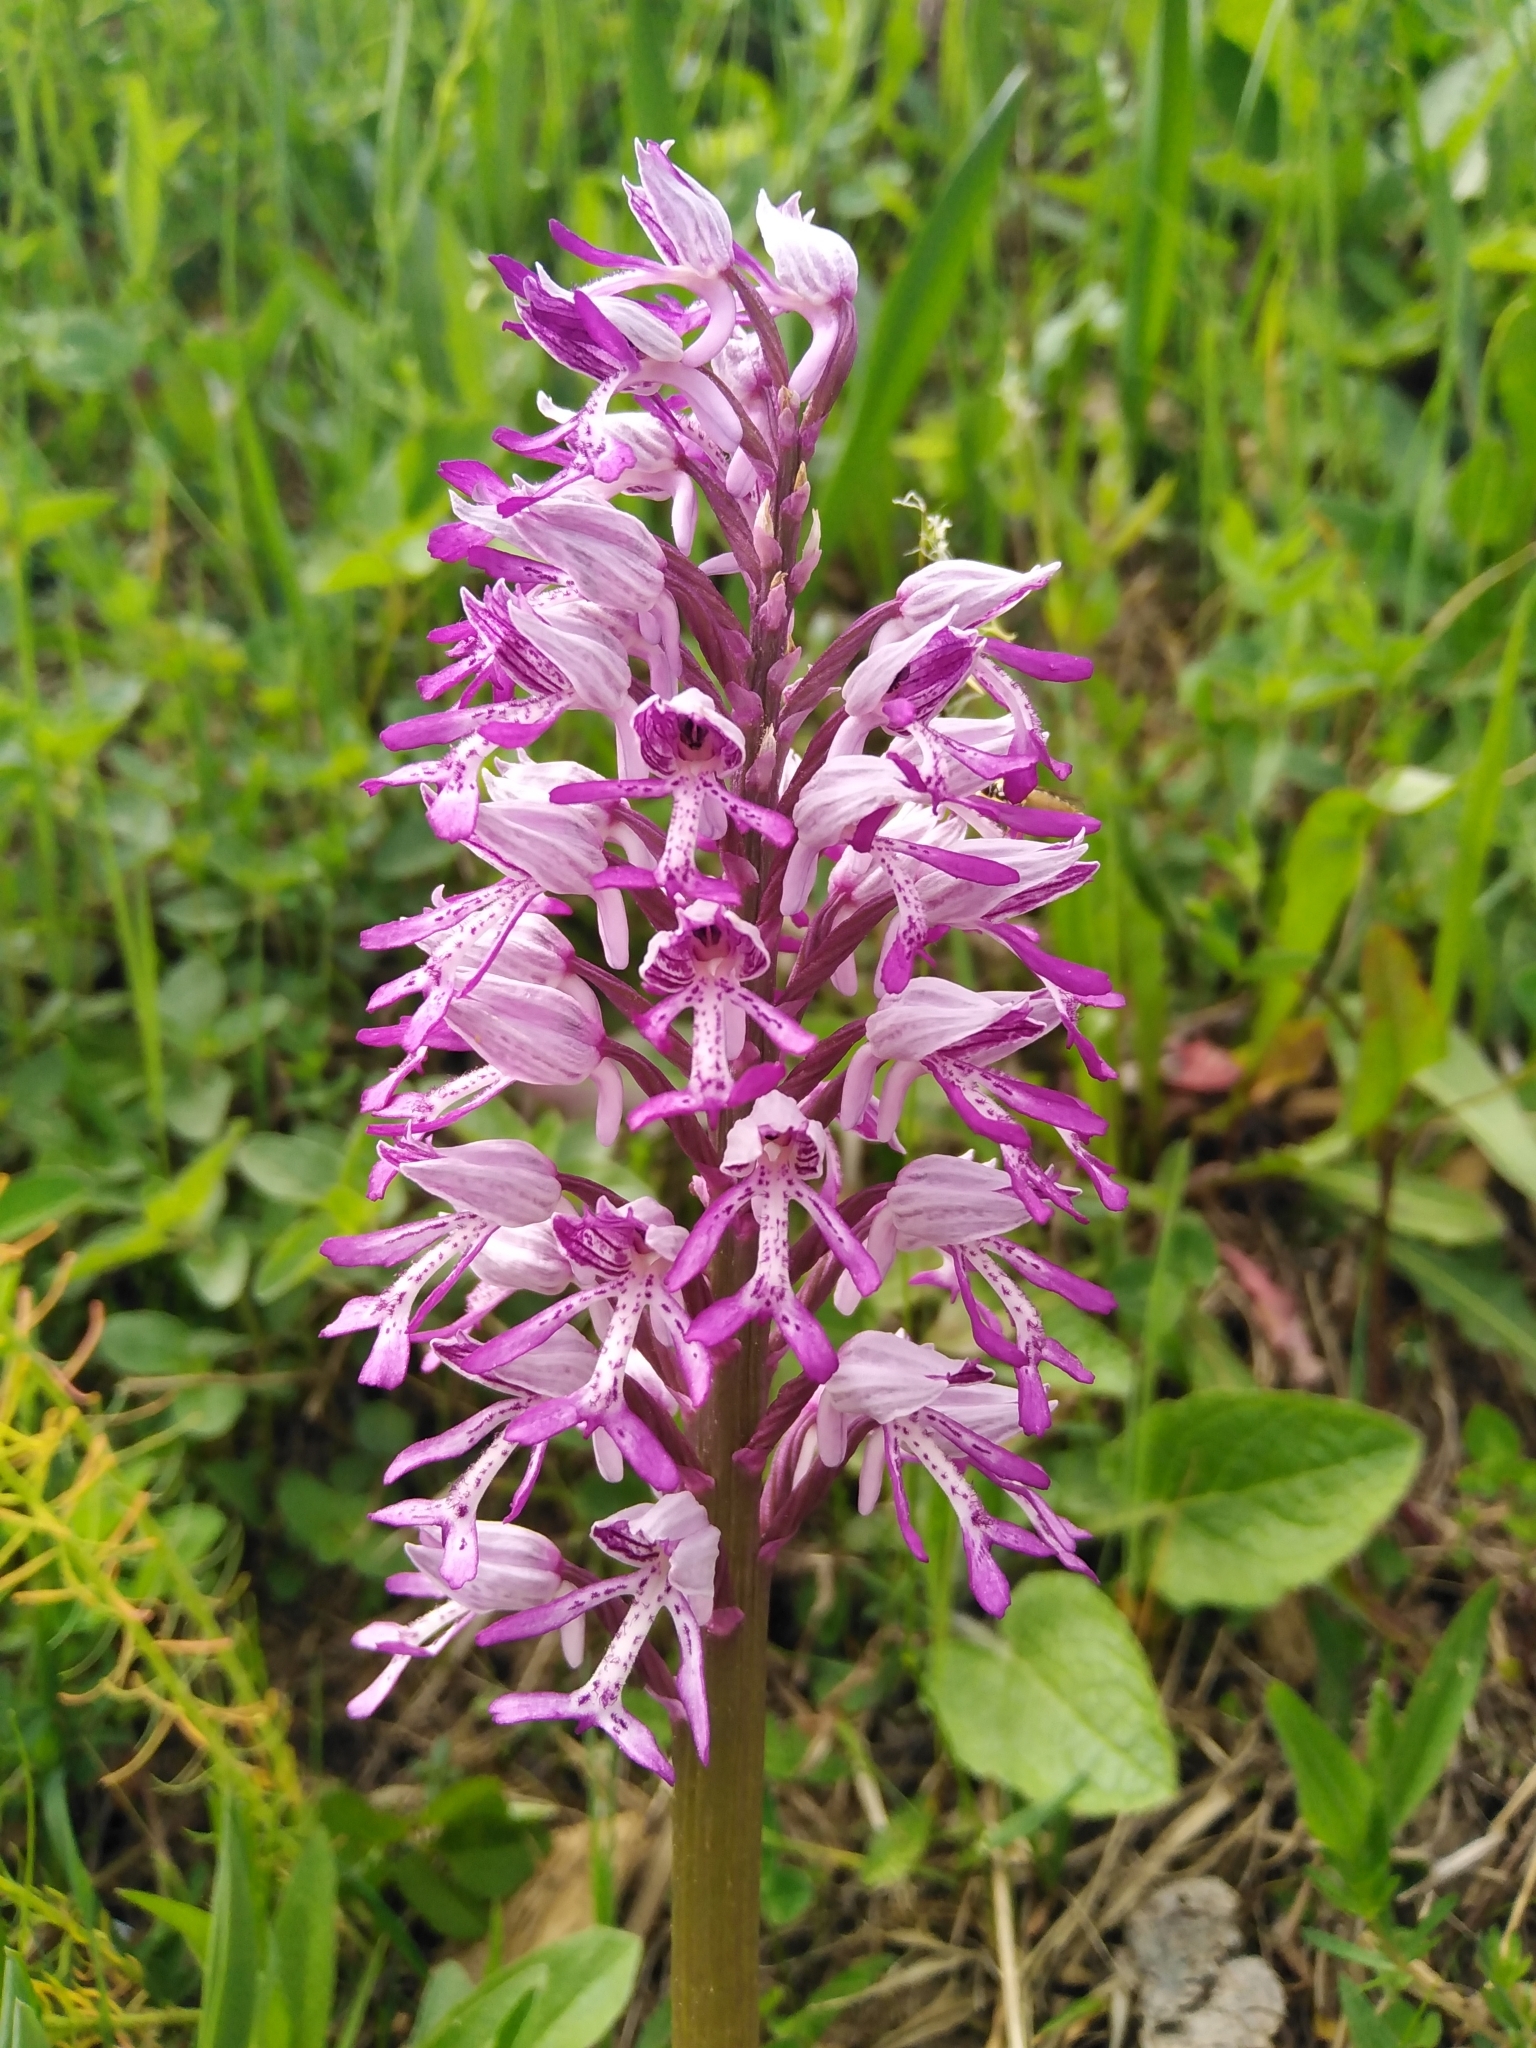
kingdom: Plantae
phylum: Tracheophyta
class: Liliopsida
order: Asparagales
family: Orchidaceae
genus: Orchis
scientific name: Orchis militaris
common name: Military orchid
